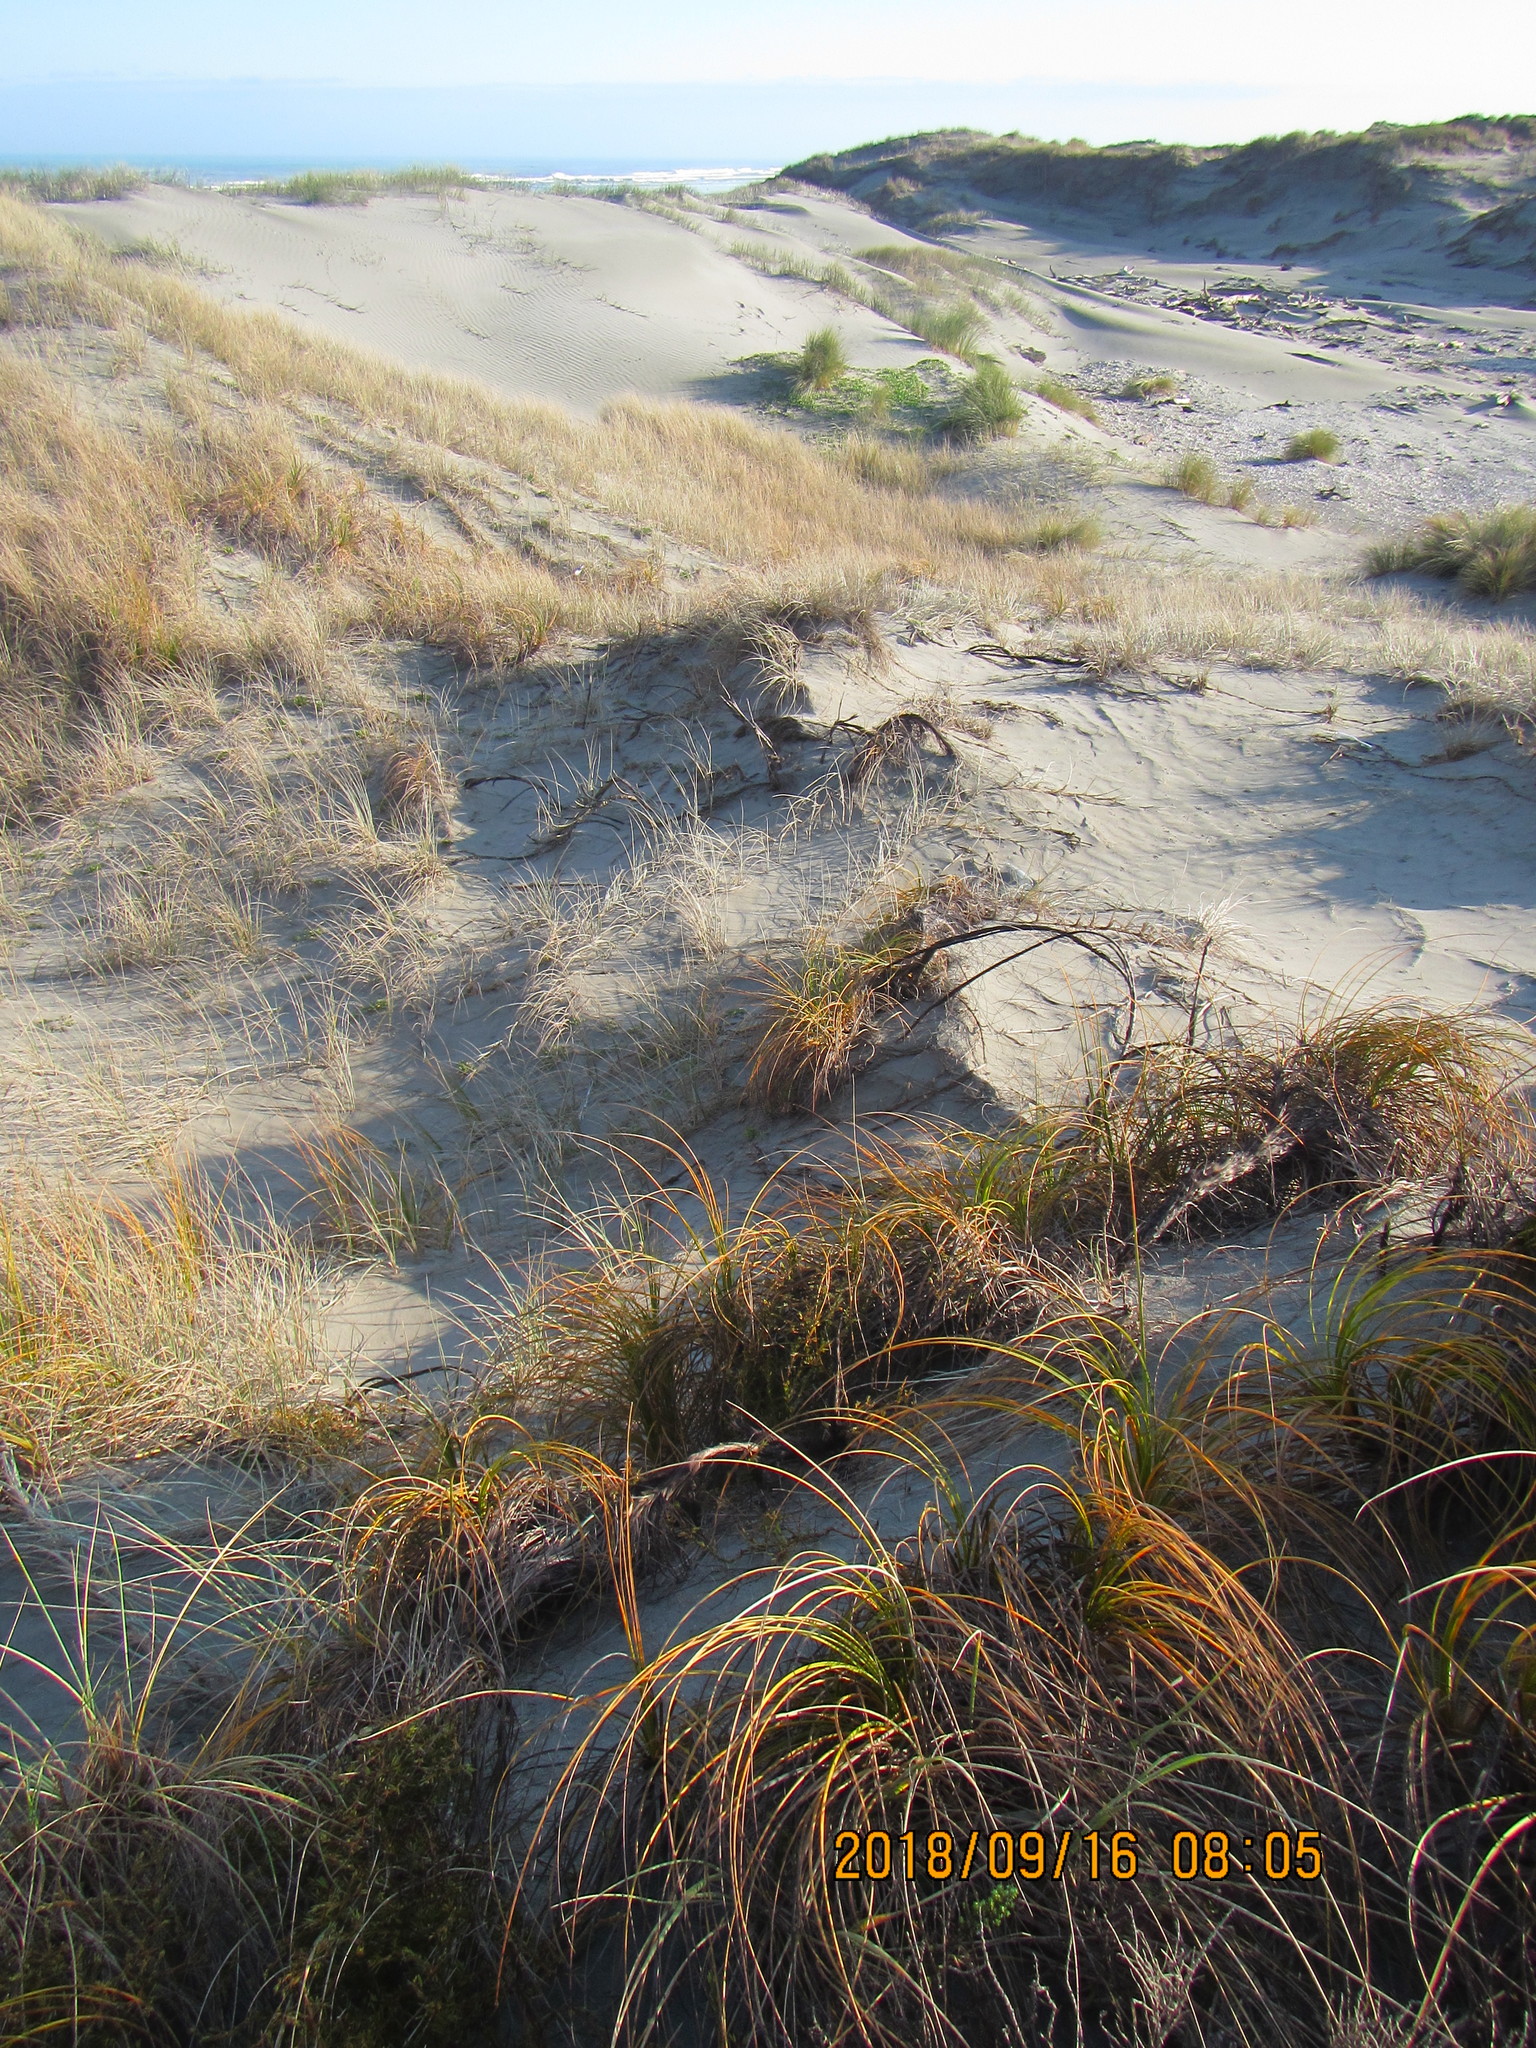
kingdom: Plantae
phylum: Tracheophyta
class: Liliopsida
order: Poales
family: Cyperaceae
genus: Ficinia
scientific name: Ficinia spiralis
